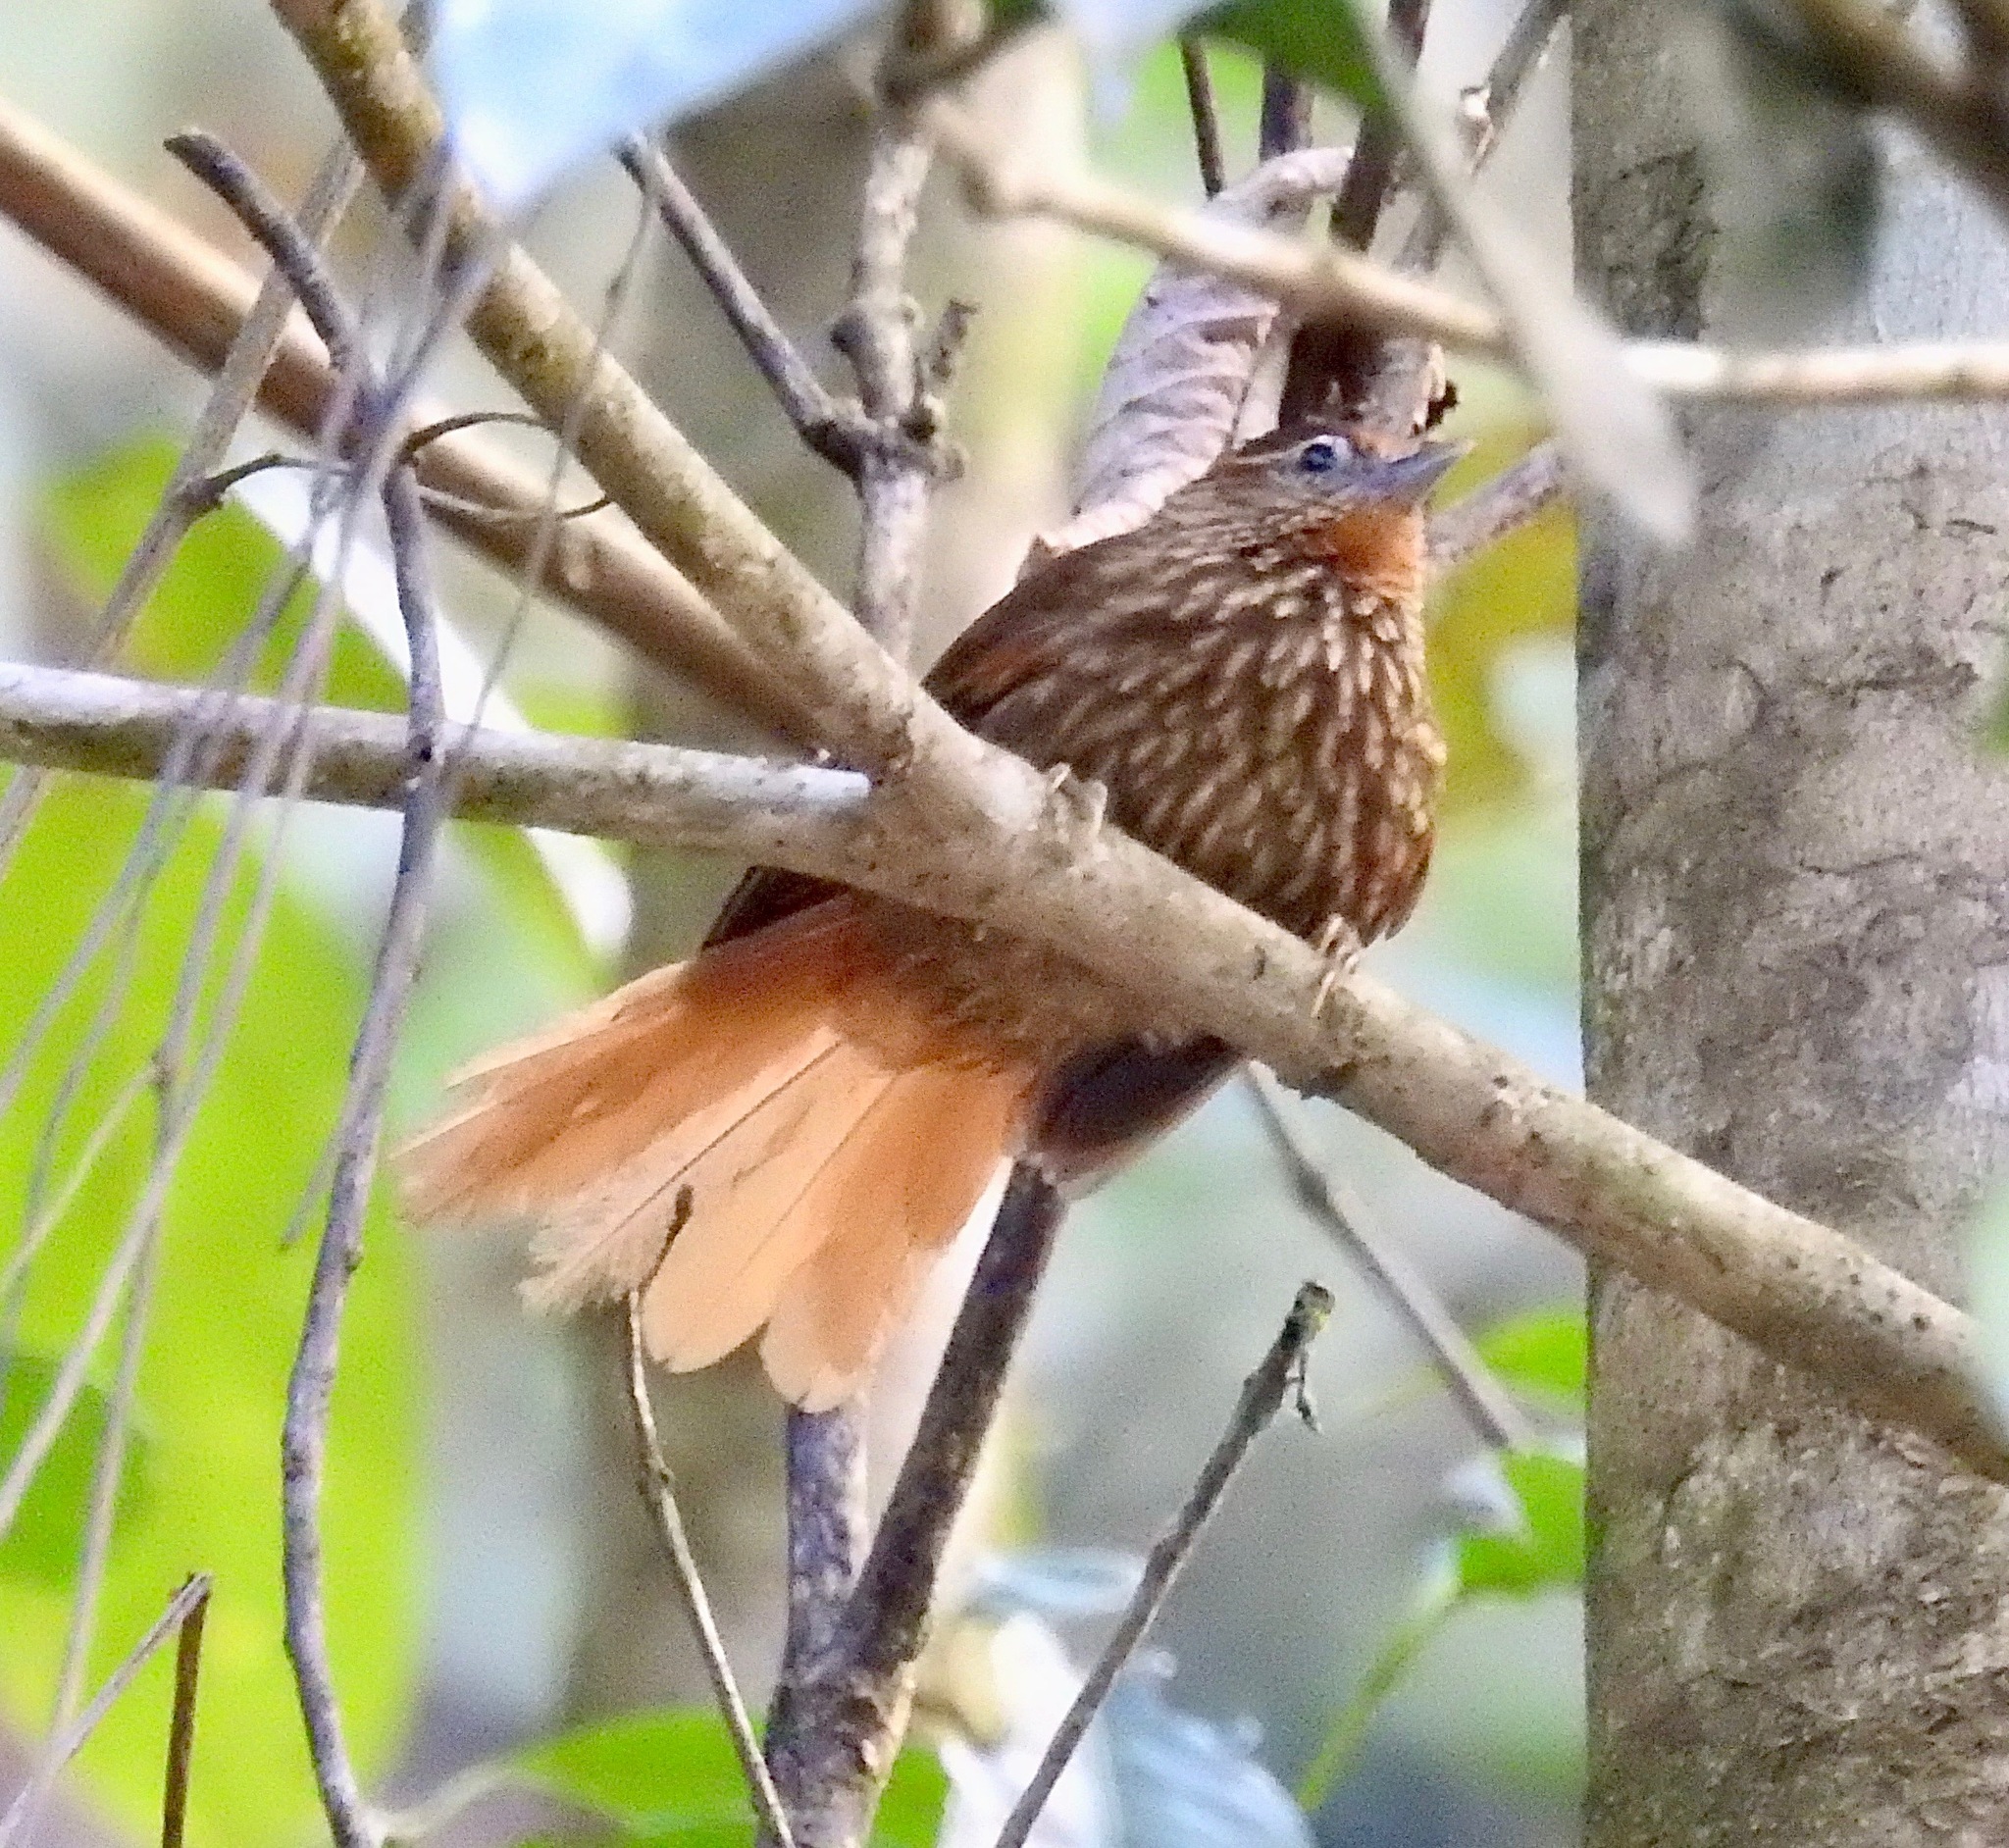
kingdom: Animalia
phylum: Chordata
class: Aves
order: Passeriformes
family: Furnariidae
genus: Thripophaga
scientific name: Thripophaga macroura
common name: Striated softtail
